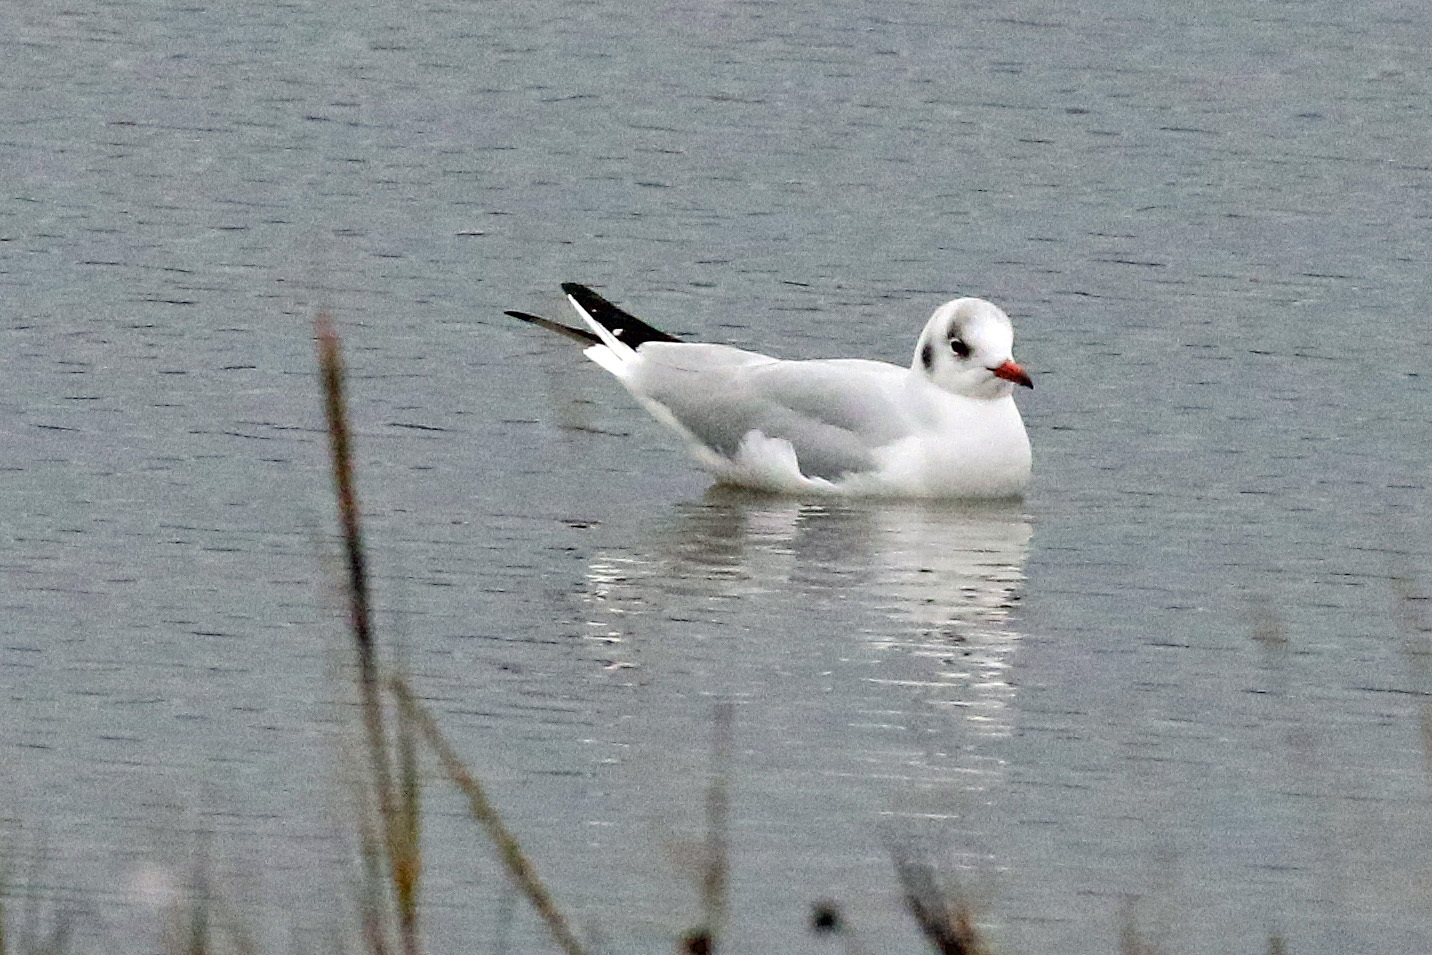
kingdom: Animalia
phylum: Chordata
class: Aves
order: Charadriiformes
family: Laridae
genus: Chroicocephalus
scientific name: Chroicocephalus ridibundus
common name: Black-headed gull
